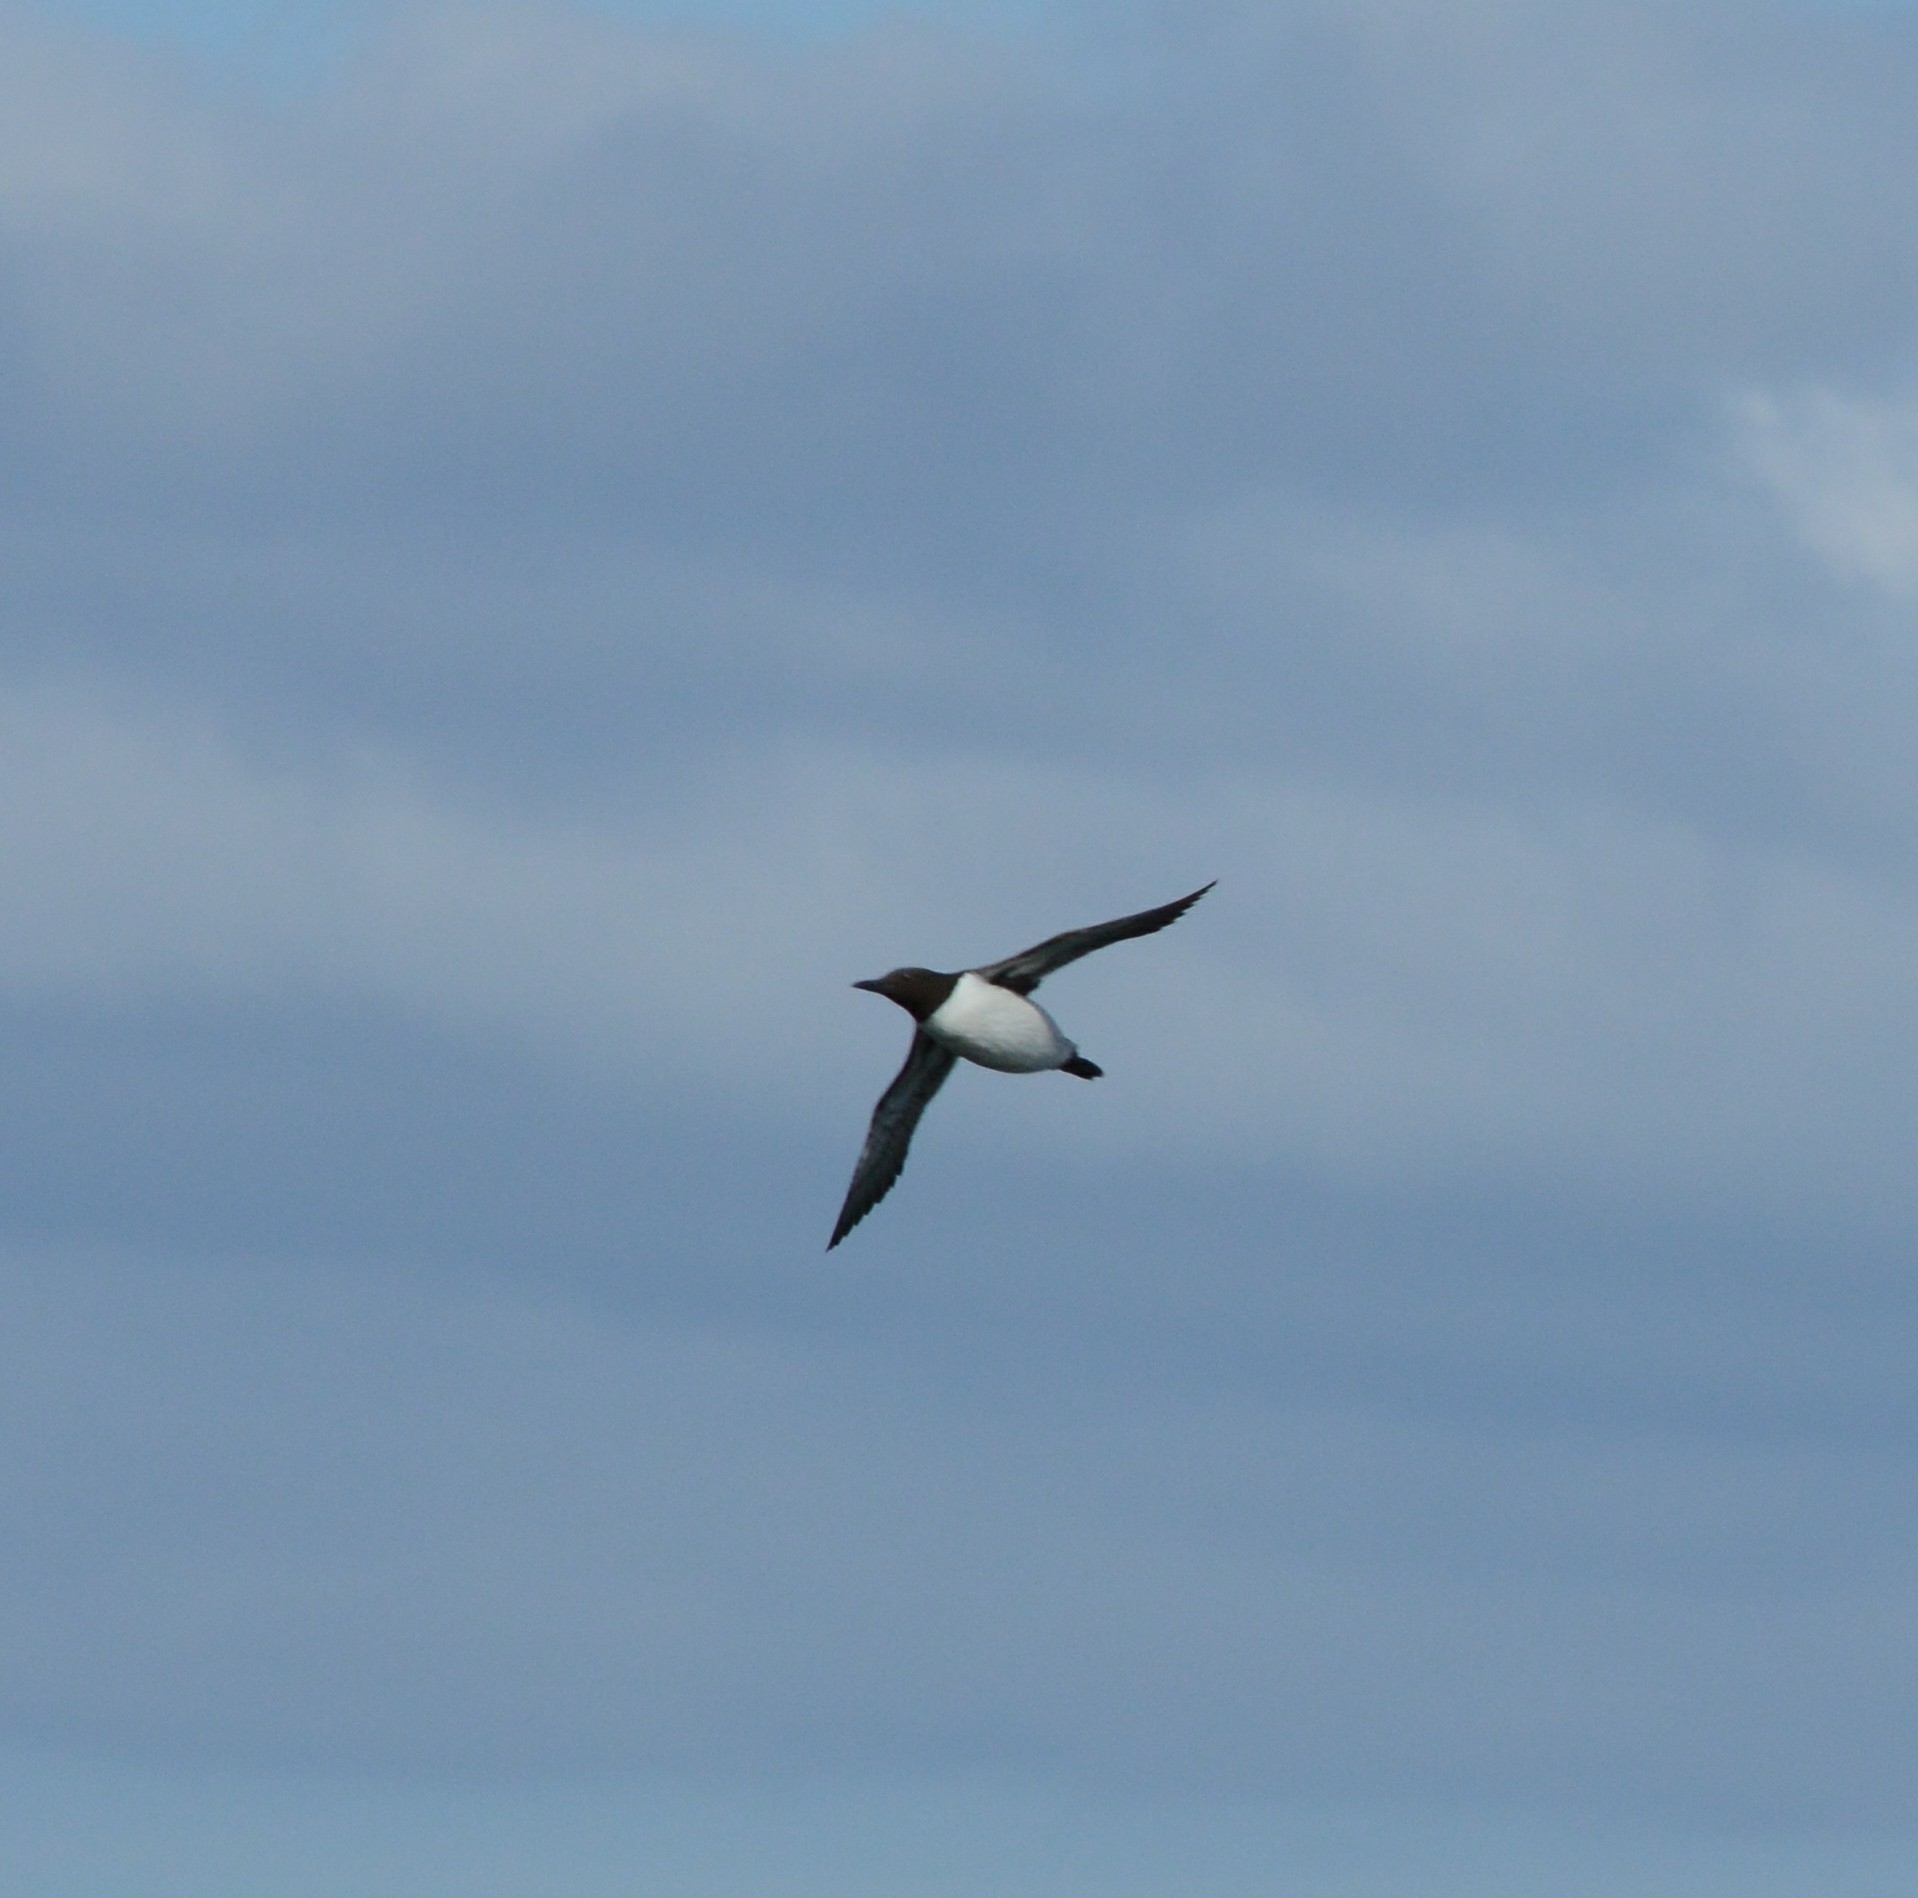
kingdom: Animalia
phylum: Chordata
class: Aves
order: Charadriiformes
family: Alcidae
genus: Uria
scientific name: Uria aalge
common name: Common murre
